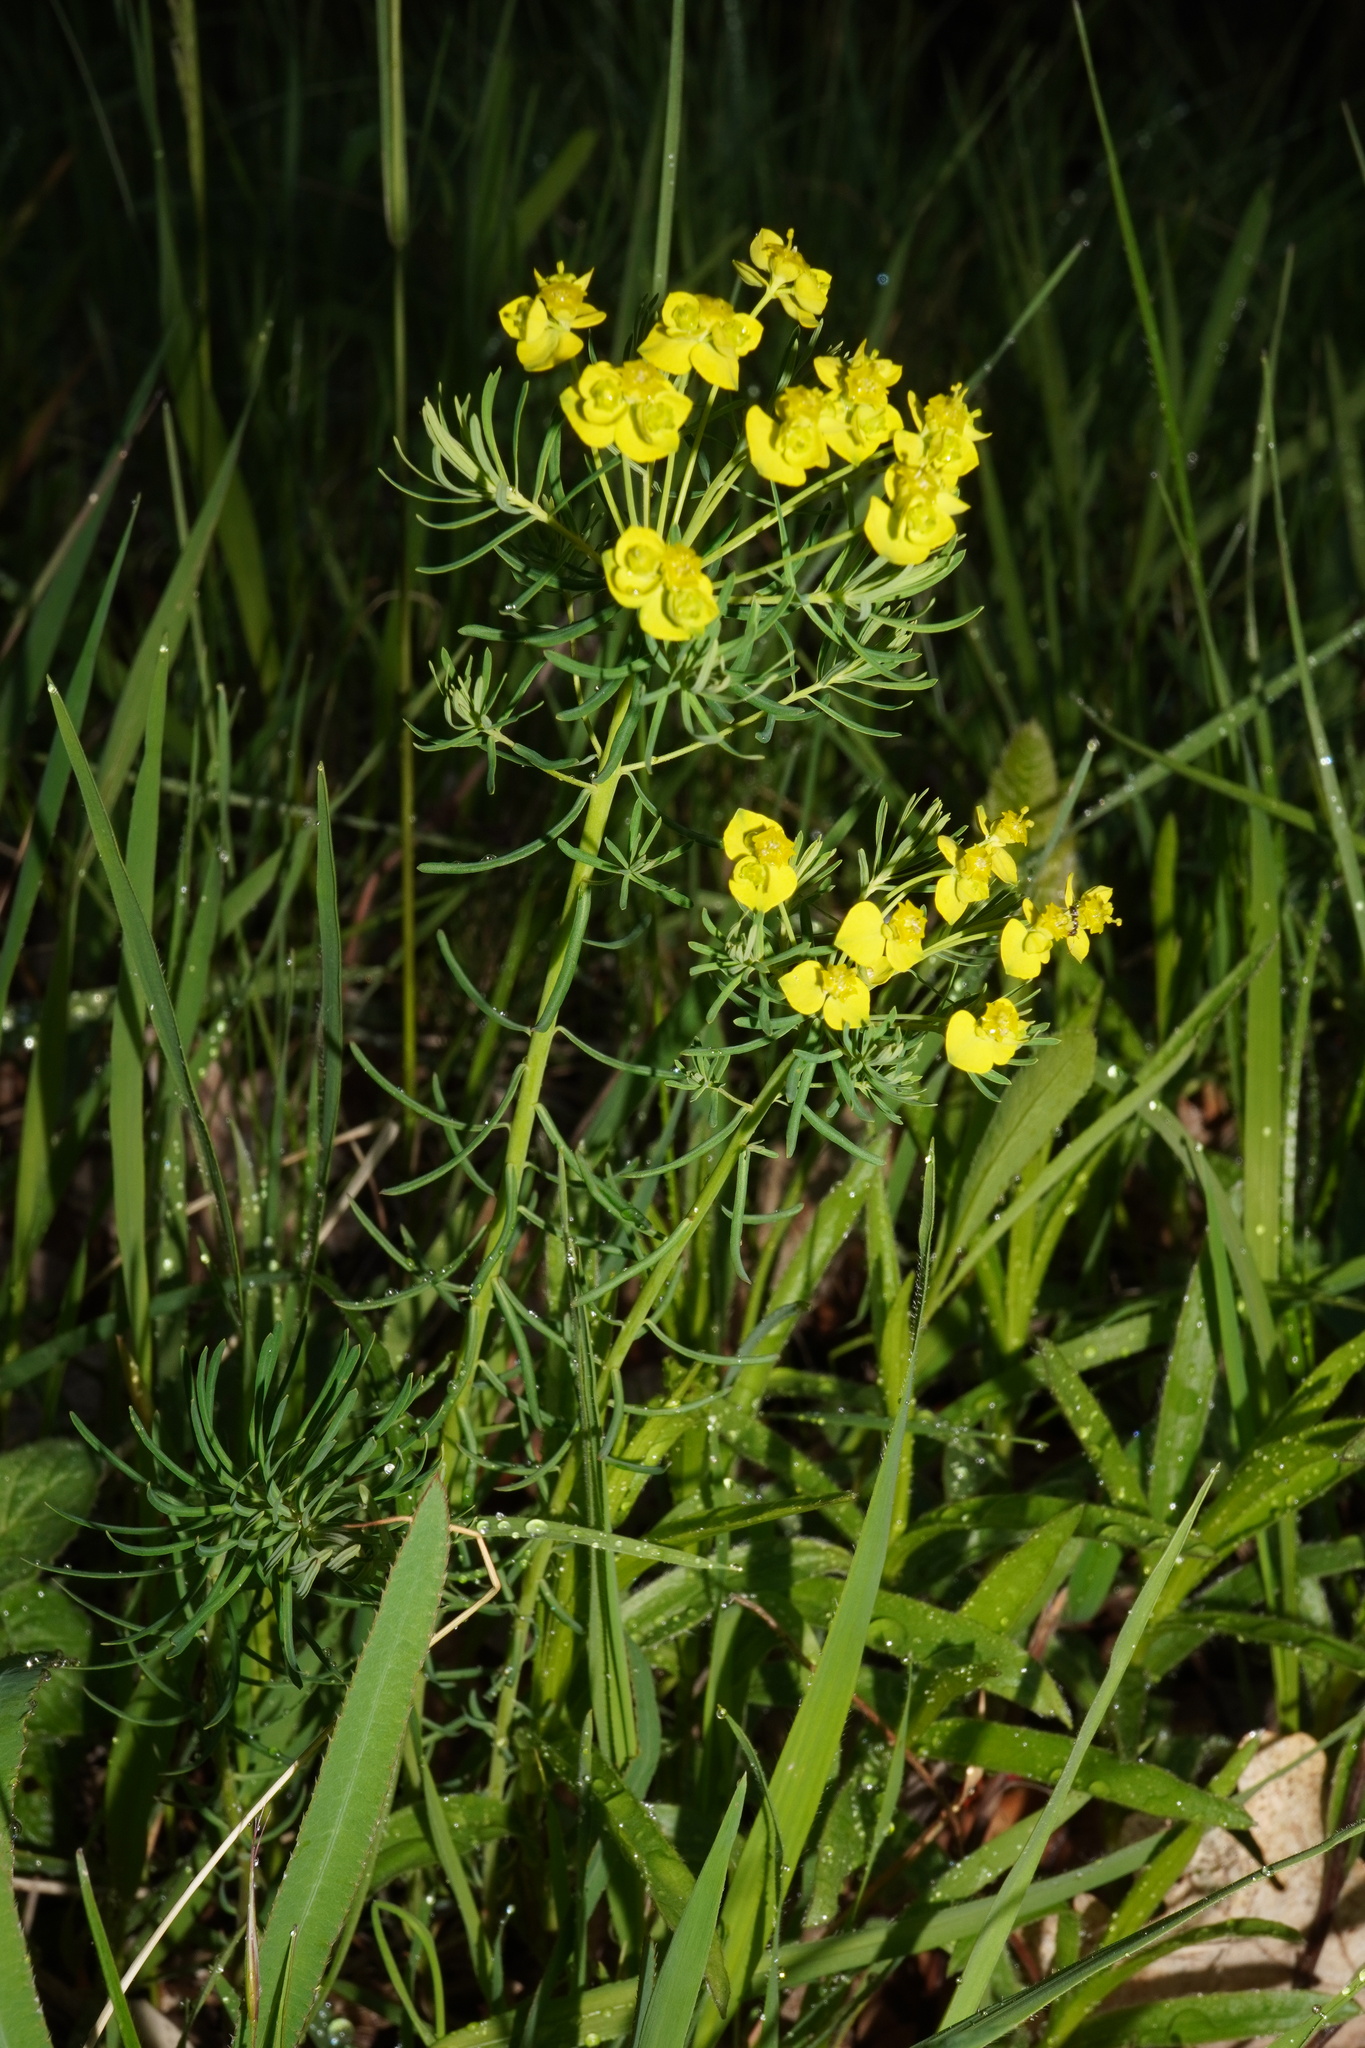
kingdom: Plantae
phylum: Tracheophyta
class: Magnoliopsida
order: Malpighiales
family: Euphorbiaceae
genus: Euphorbia
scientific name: Euphorbia cyparissias
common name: Cypress spurge
